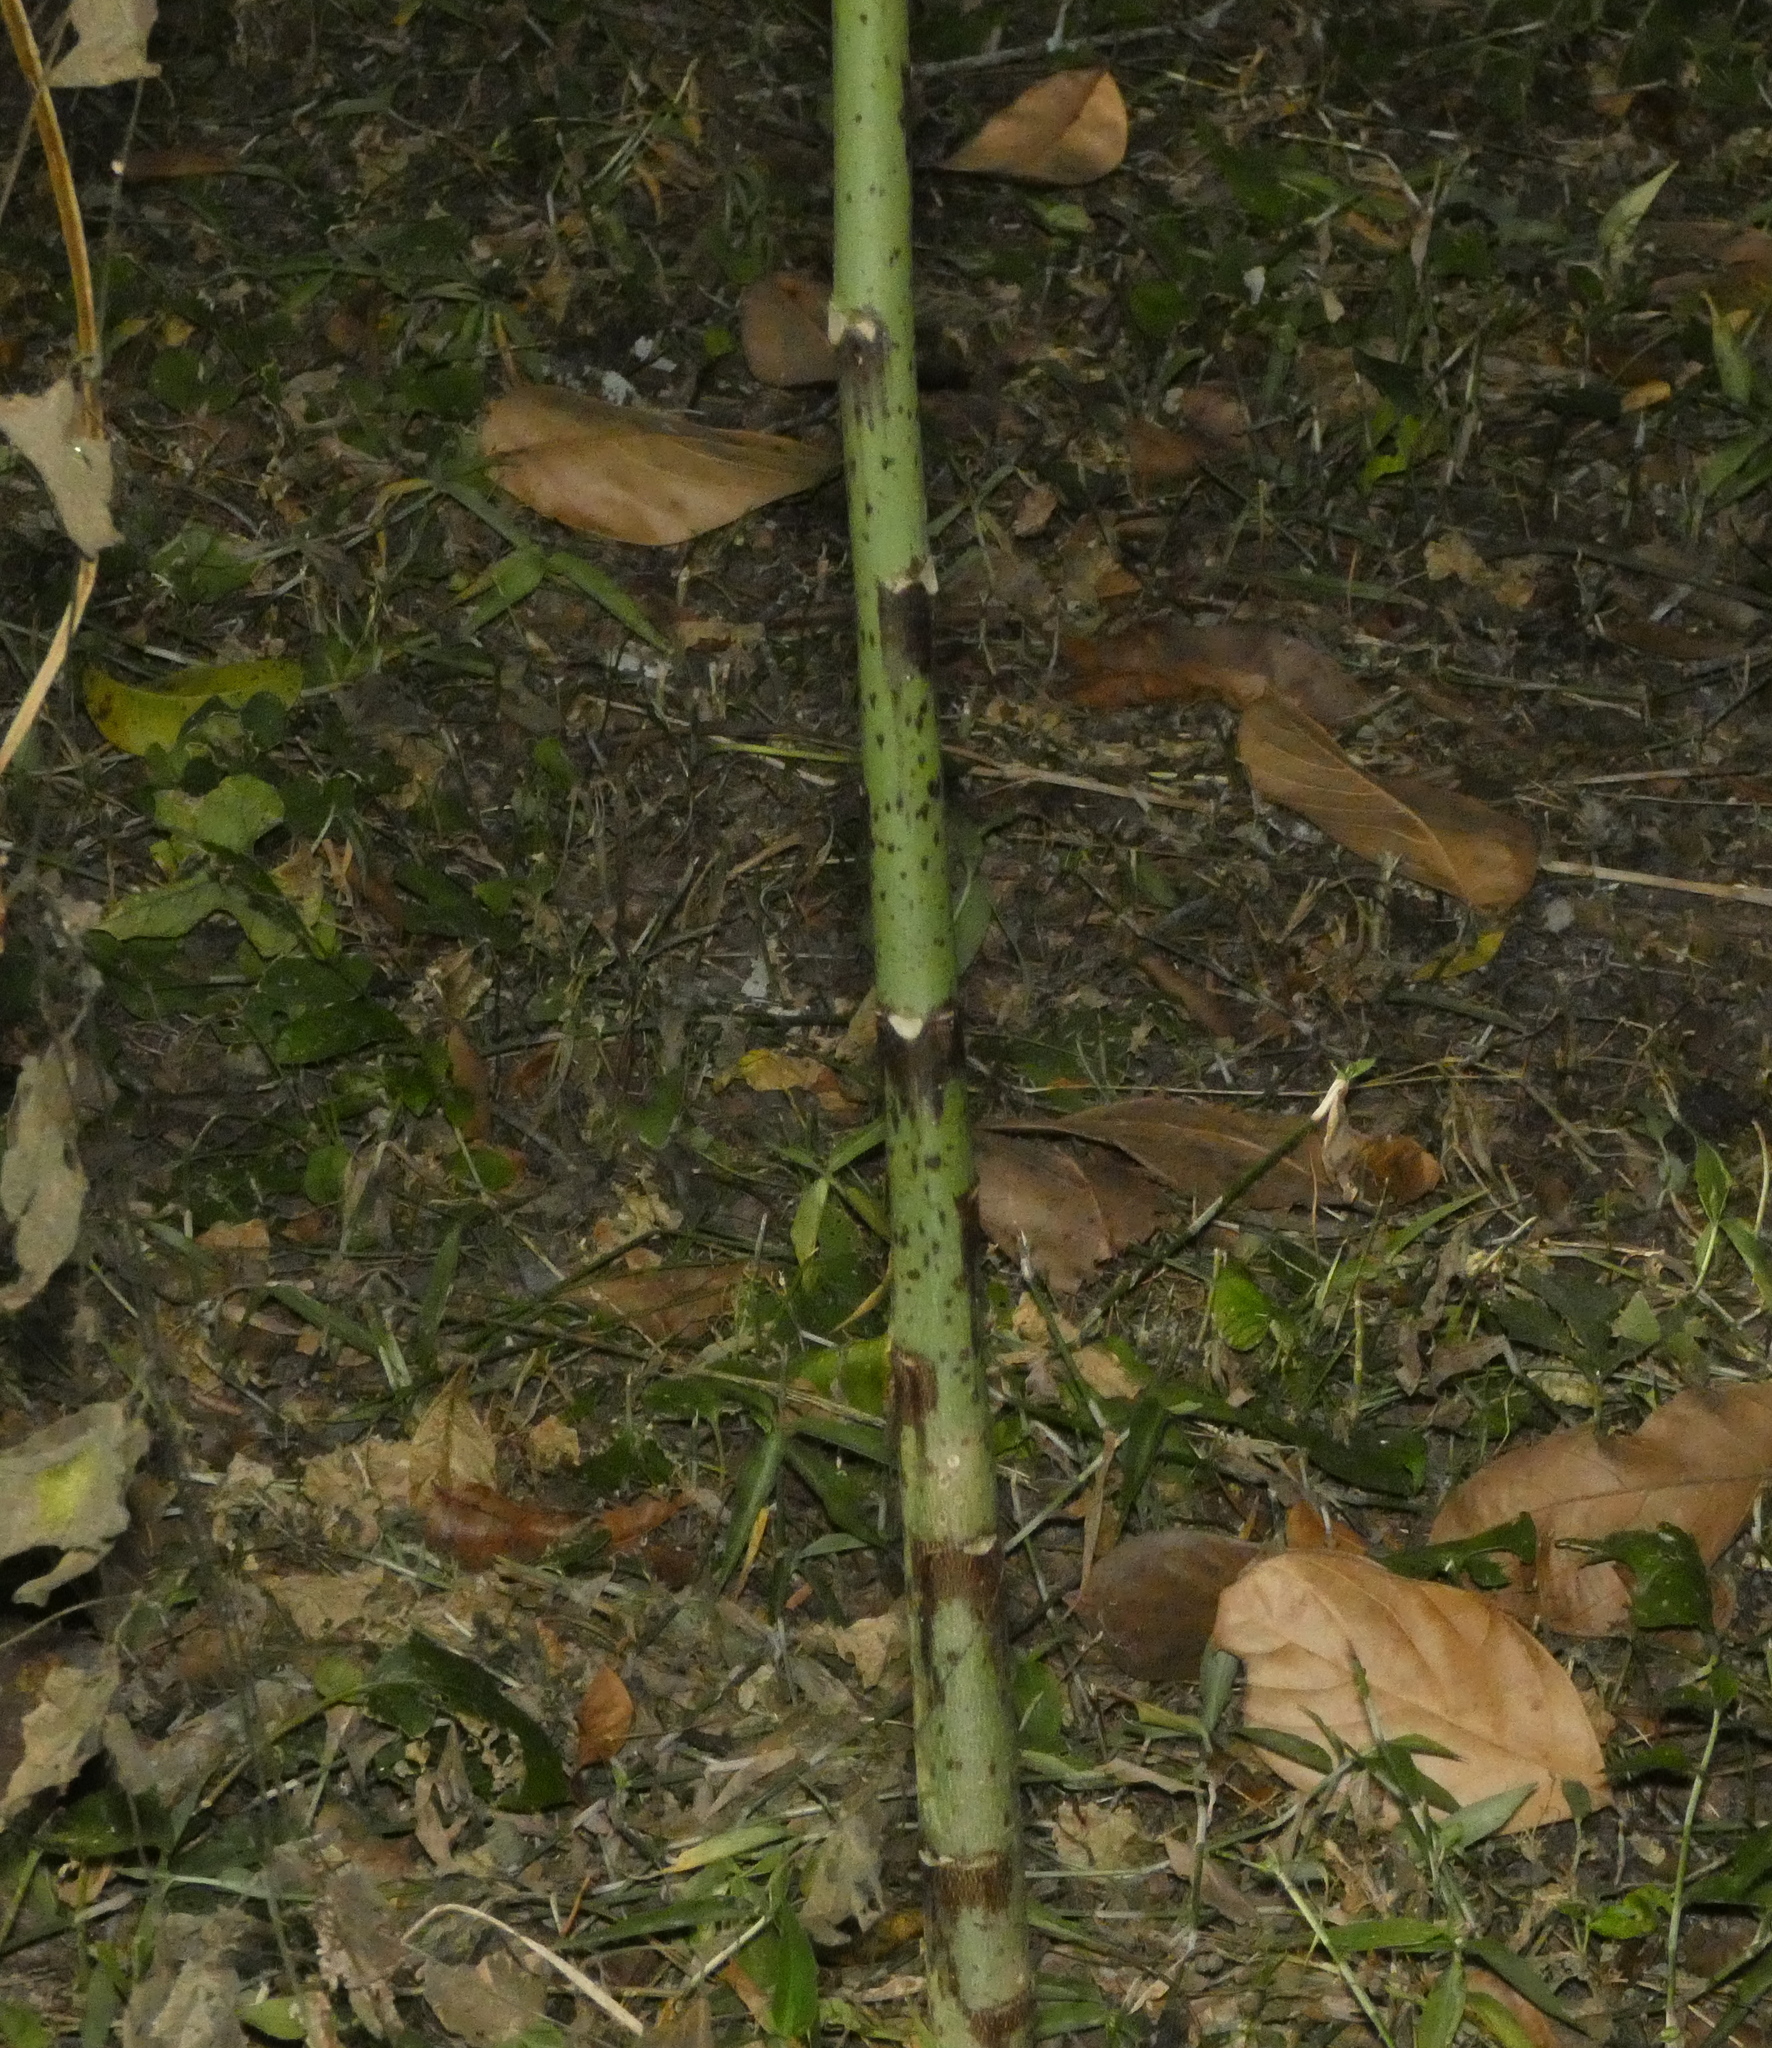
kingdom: Plantae
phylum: Tracheophyta
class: Magnoliopsida
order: Brassicales
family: Caricaceae
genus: Carica
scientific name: Carica papaya
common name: Papaya
